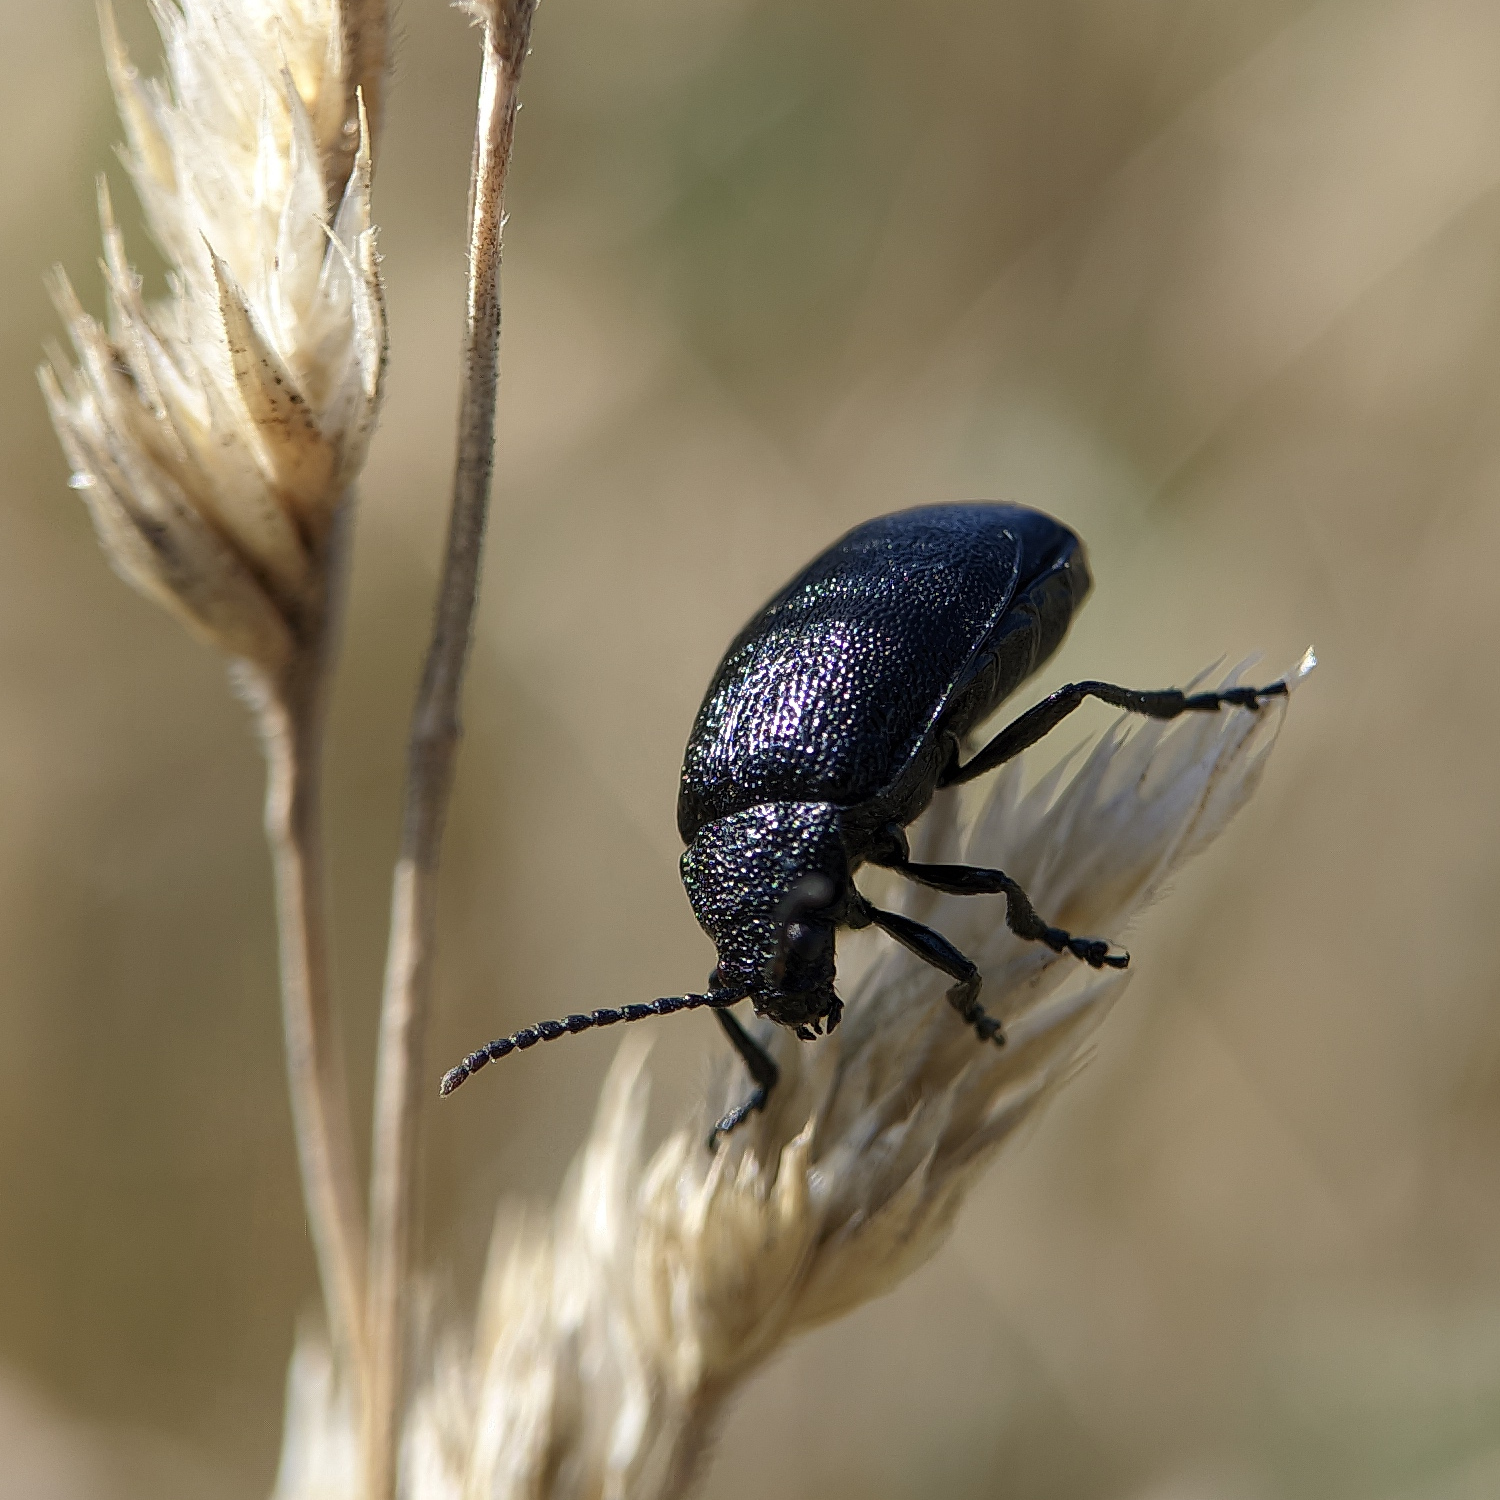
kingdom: Animalia
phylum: Arthropoda
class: Insecta
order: Coleoptera
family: Chrysomelidae
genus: Galeruca
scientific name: Galeruca tanaceti
